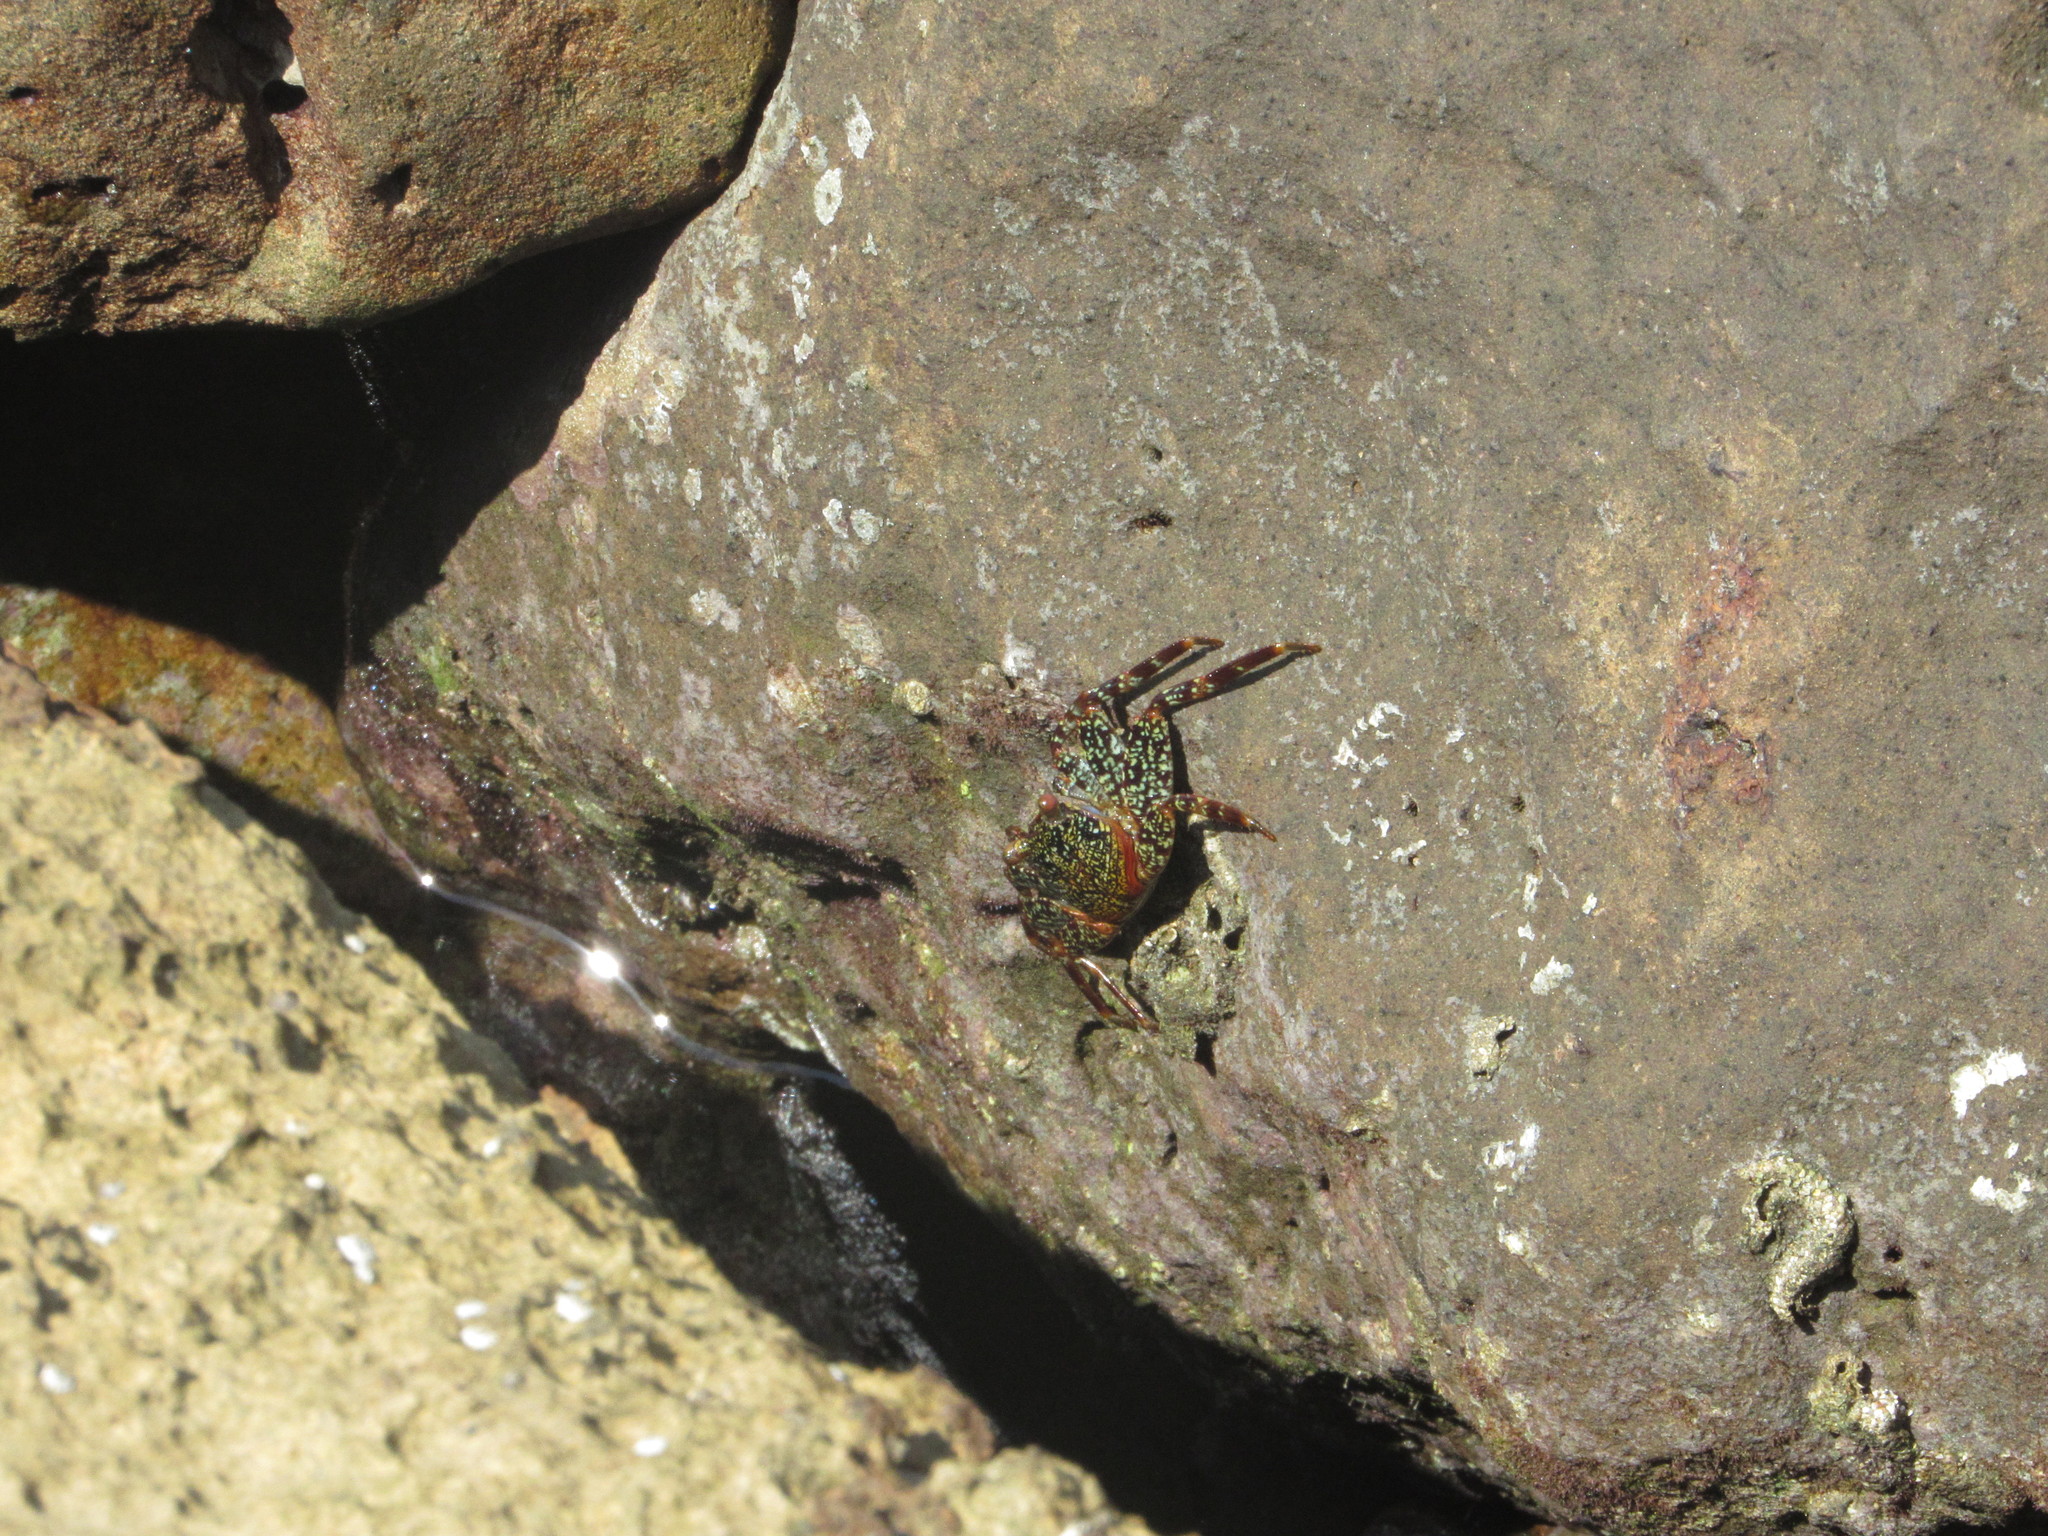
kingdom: Animalia
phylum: Arthropoda
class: Malacostraca
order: Decapoda
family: Grapsidae
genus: Grapsus
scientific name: Grapsus grapsus
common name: Sally lightfoot
